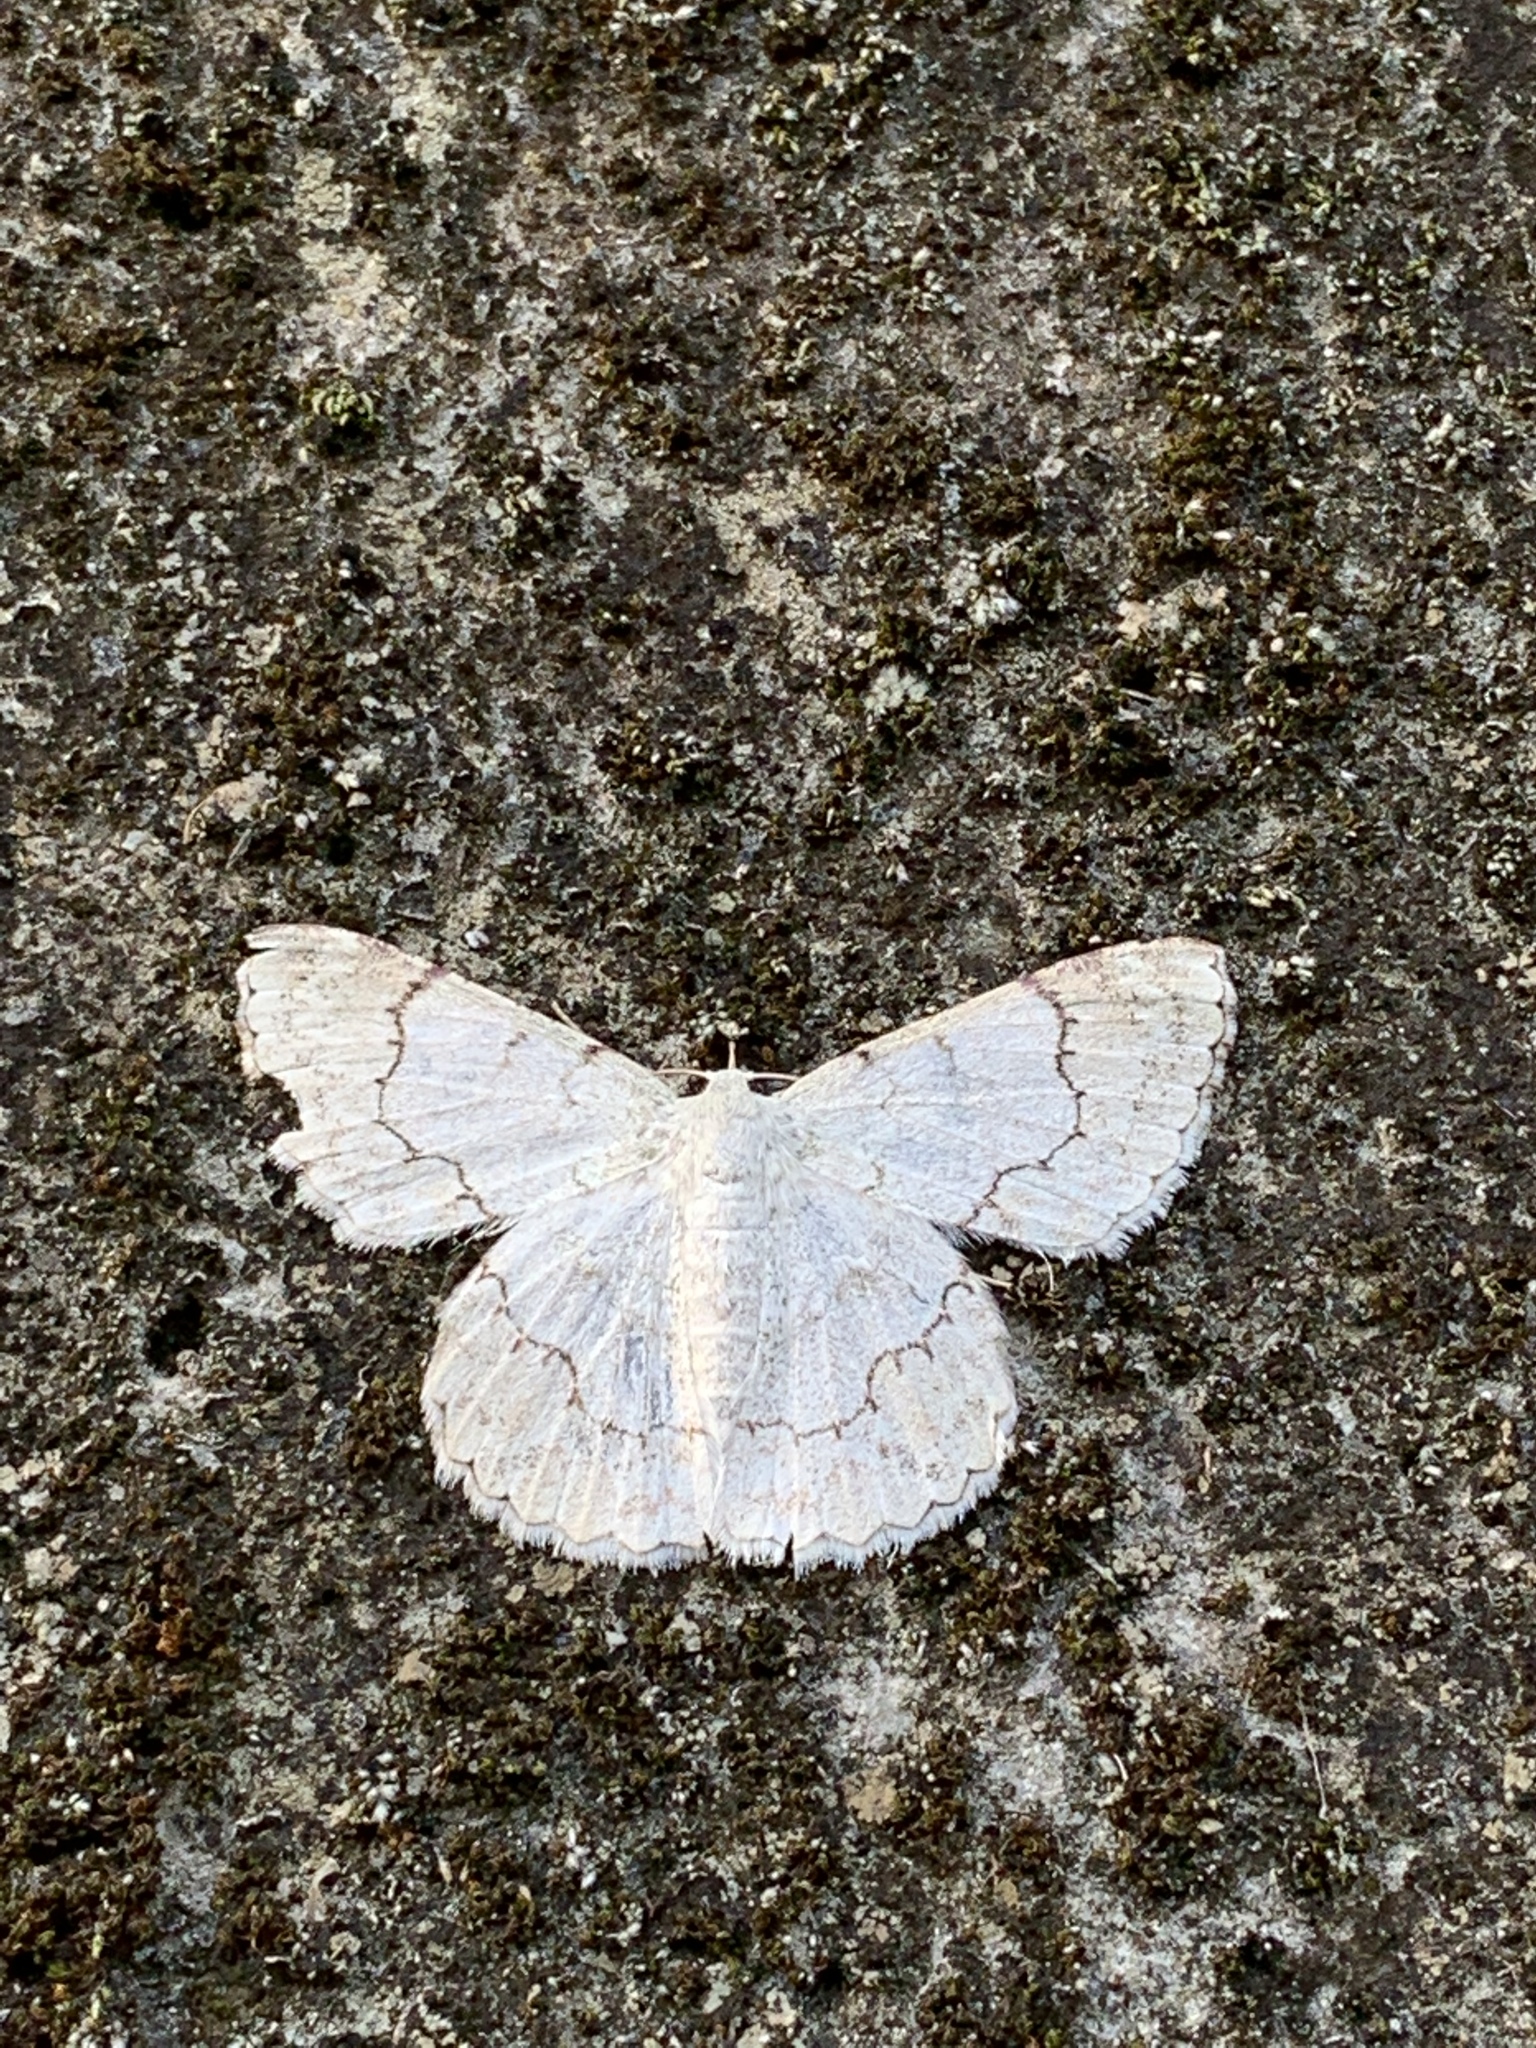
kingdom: Animalia
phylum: Arthropoda
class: Insecta
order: Lepidoptera
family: Geometridae
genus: Pingasa
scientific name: Pingasa ruginaria
